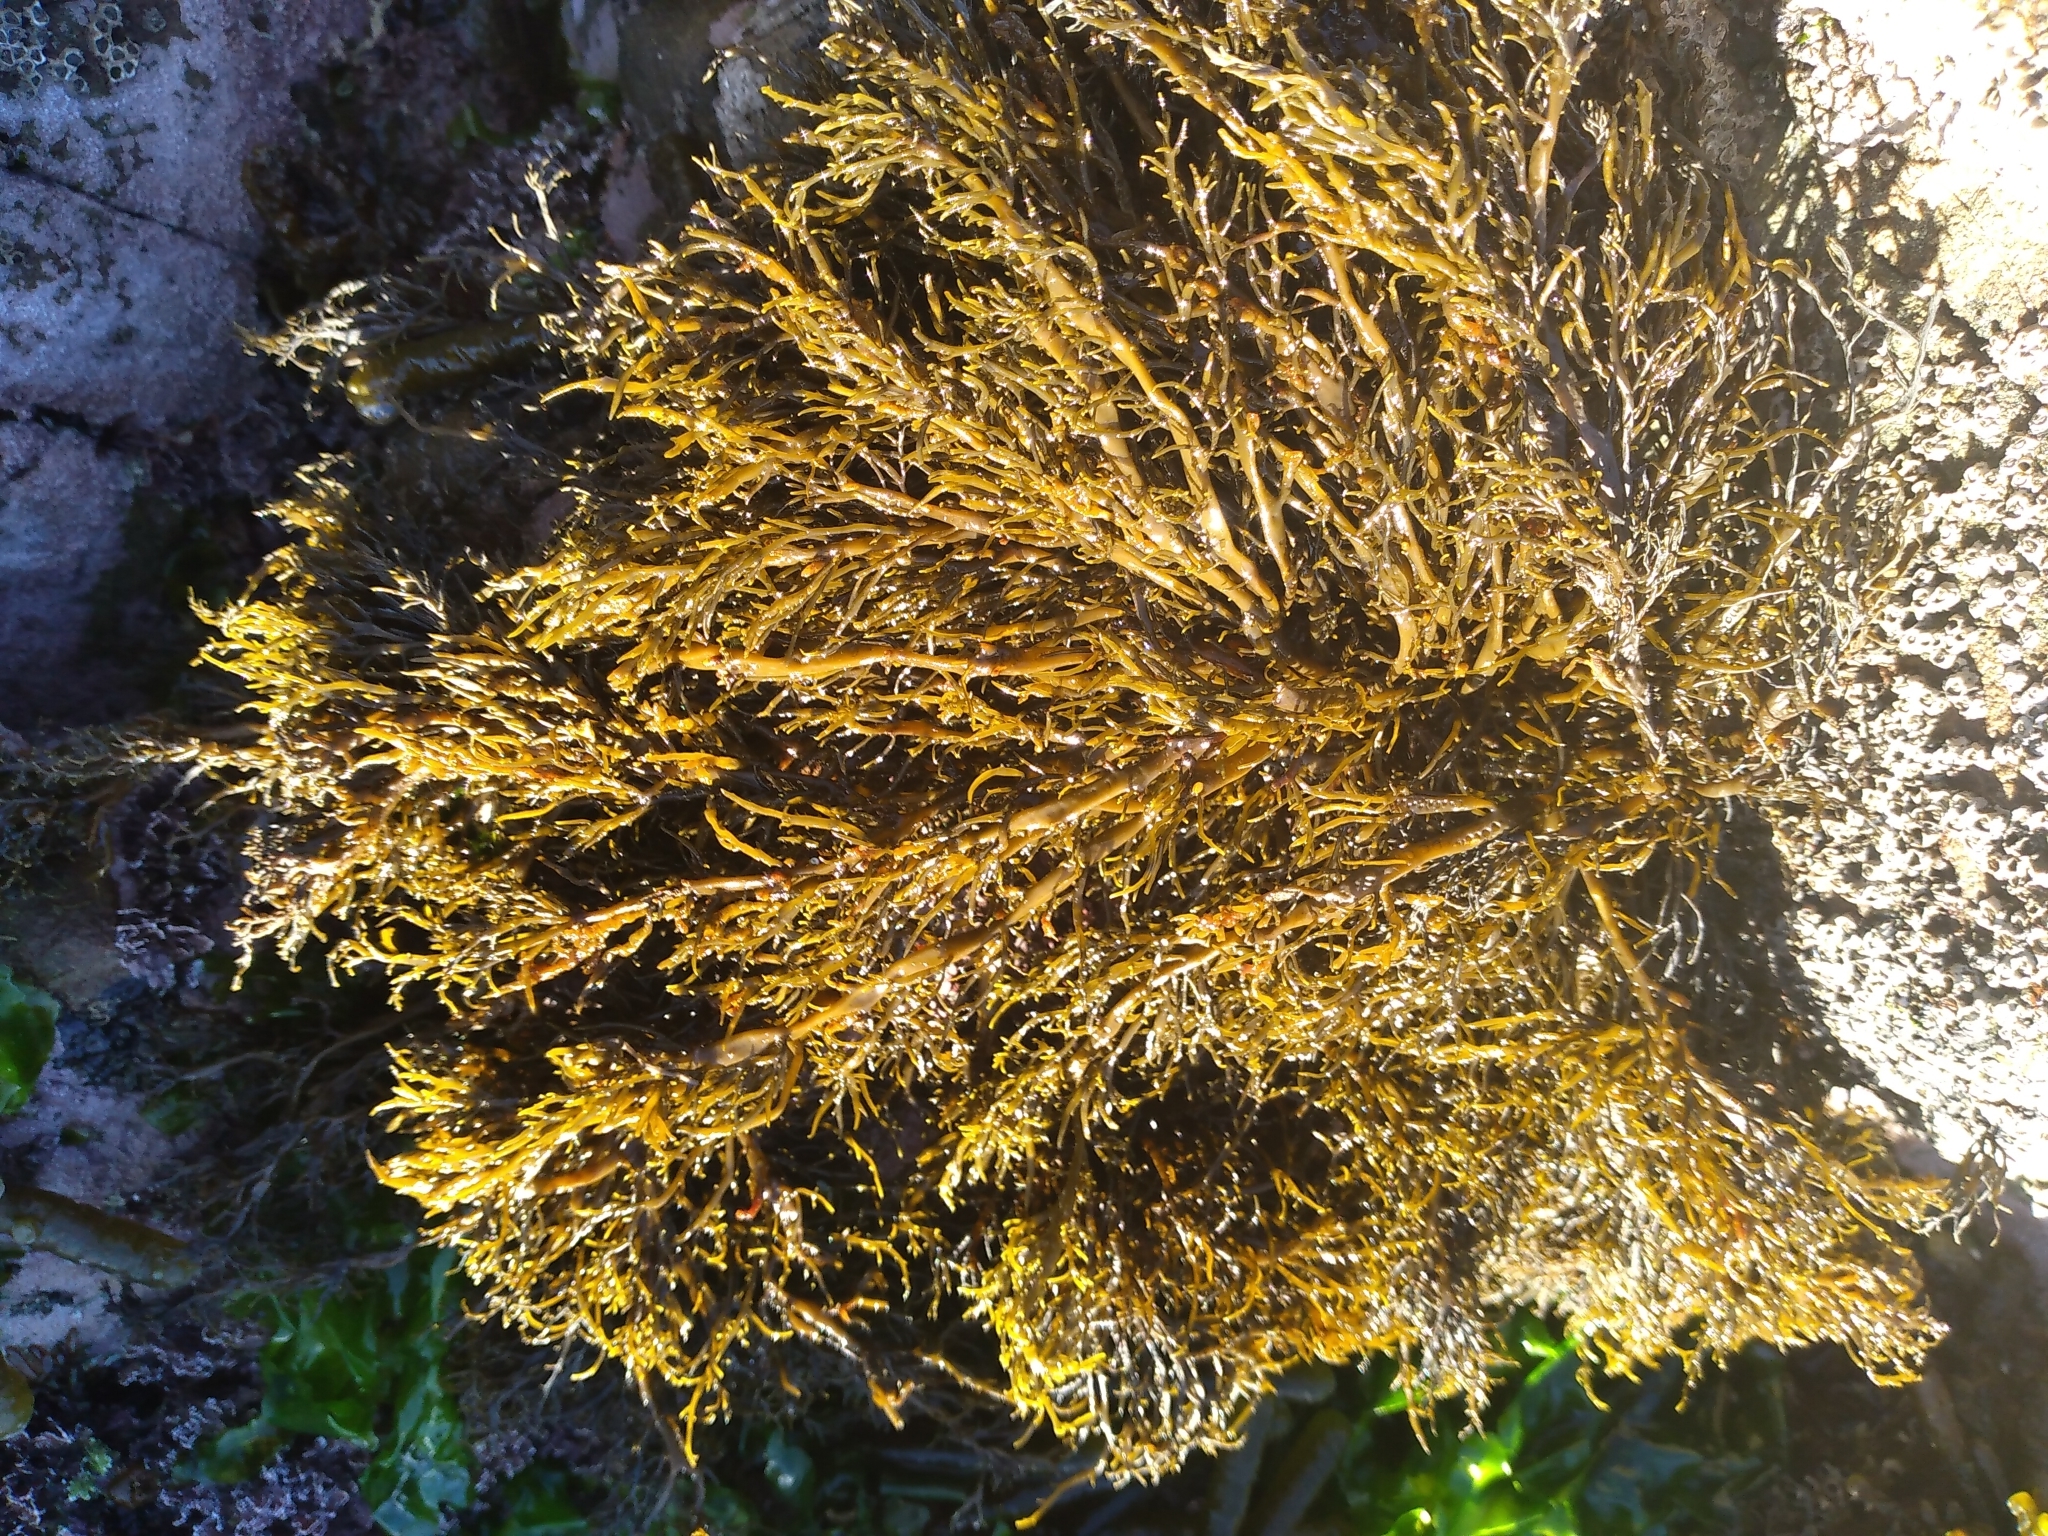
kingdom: Chromista
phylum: Ochrophyta
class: Phaeophyceae
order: Scytothamnales
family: Scytothamnaceae
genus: Scytothamnus
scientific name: Scytothamnus australis
